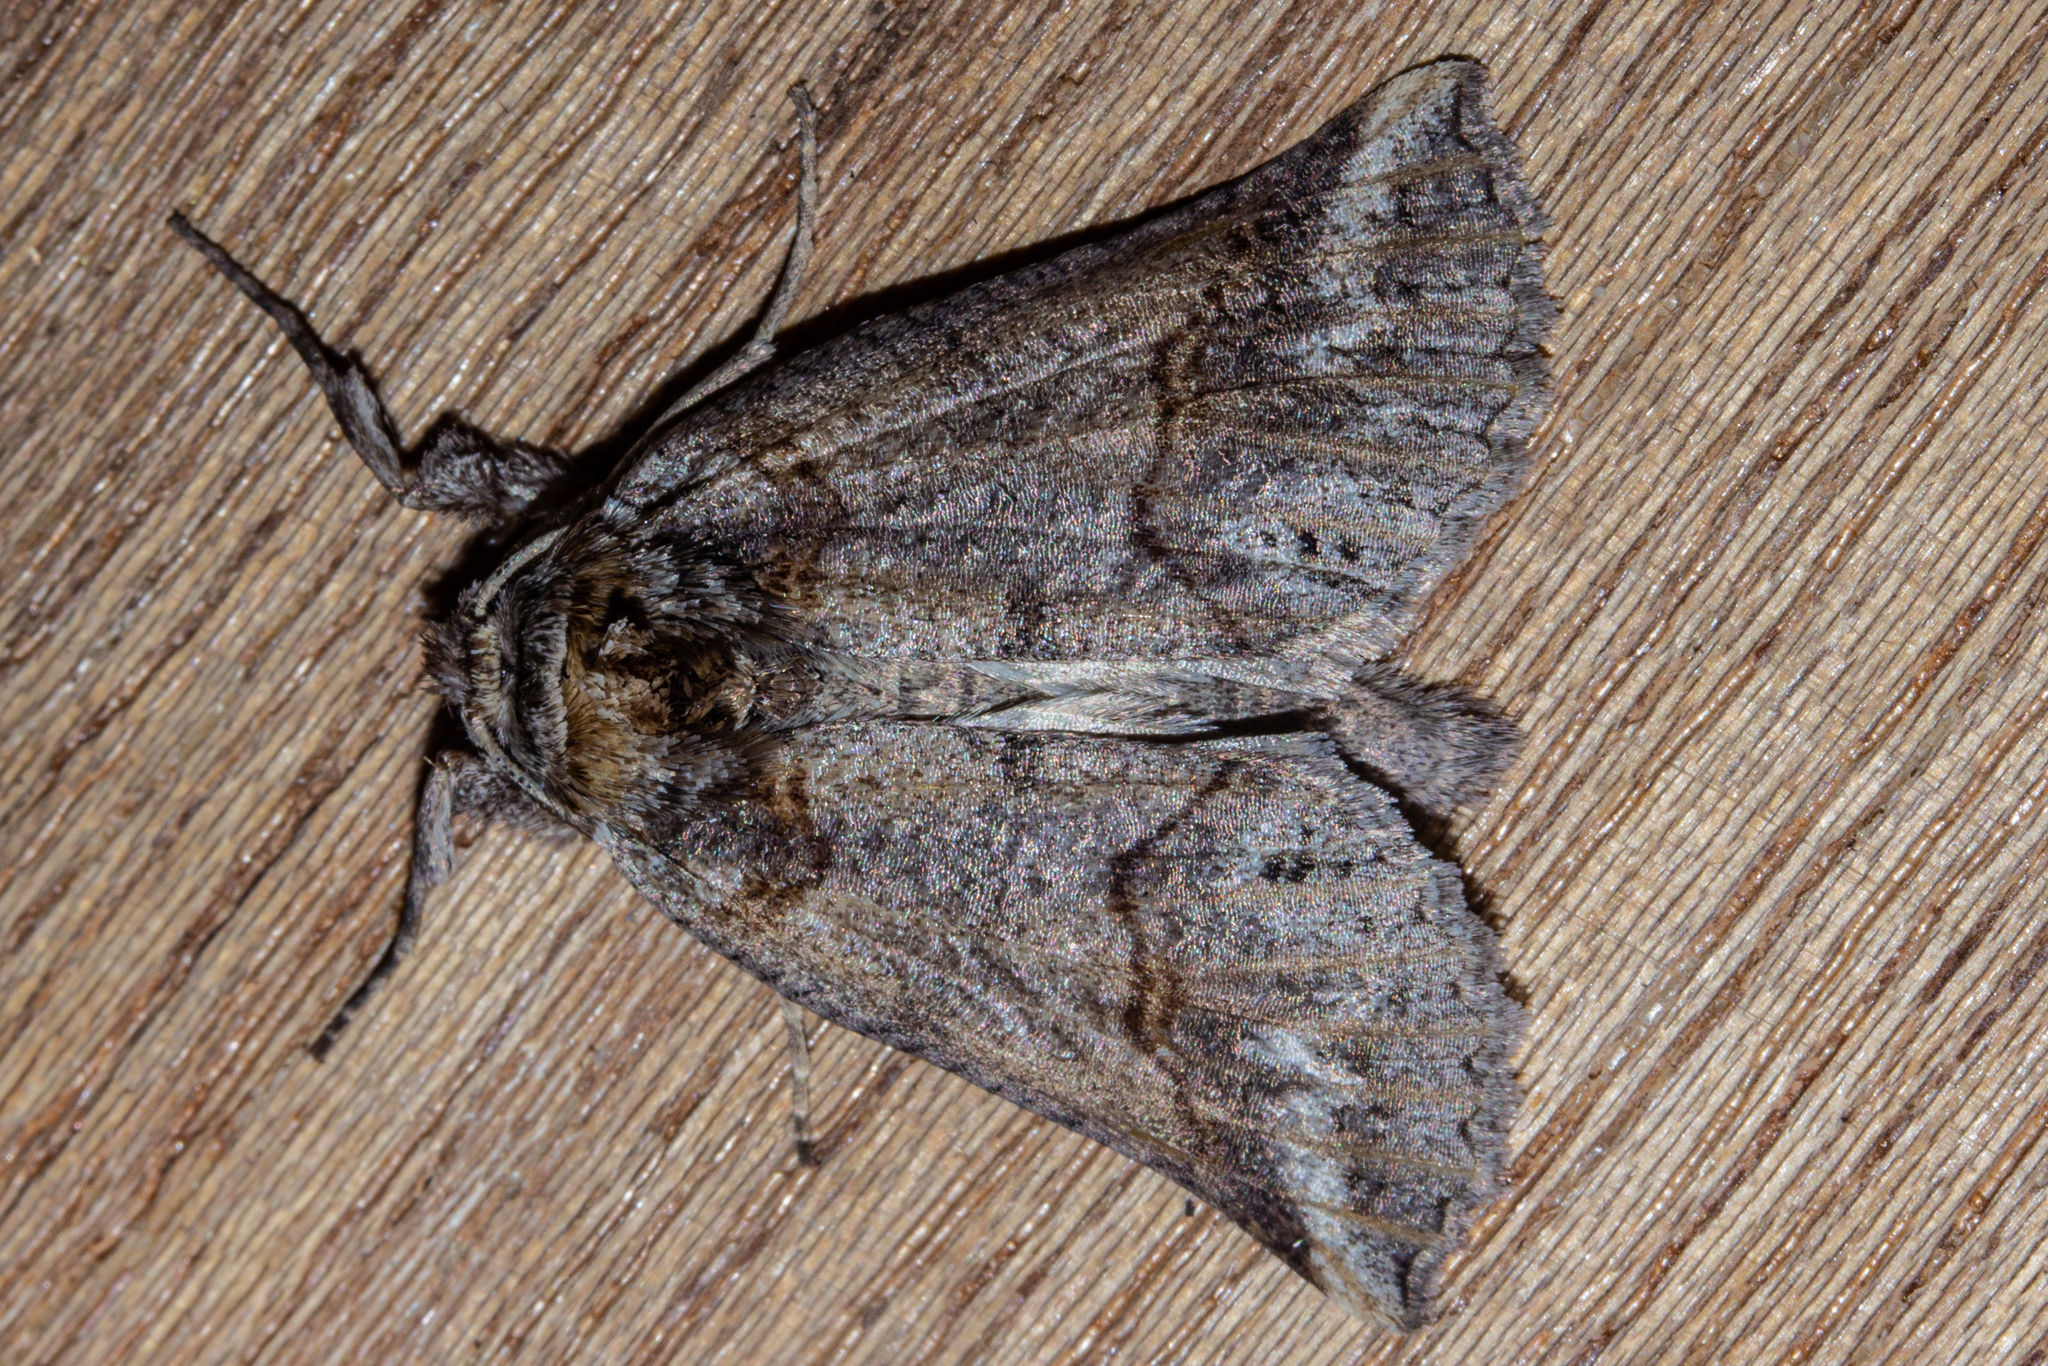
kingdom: Animalia
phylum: Arthropoda
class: Insecta
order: Lepidoptera
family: Geometridae
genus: Declana
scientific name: Declana
